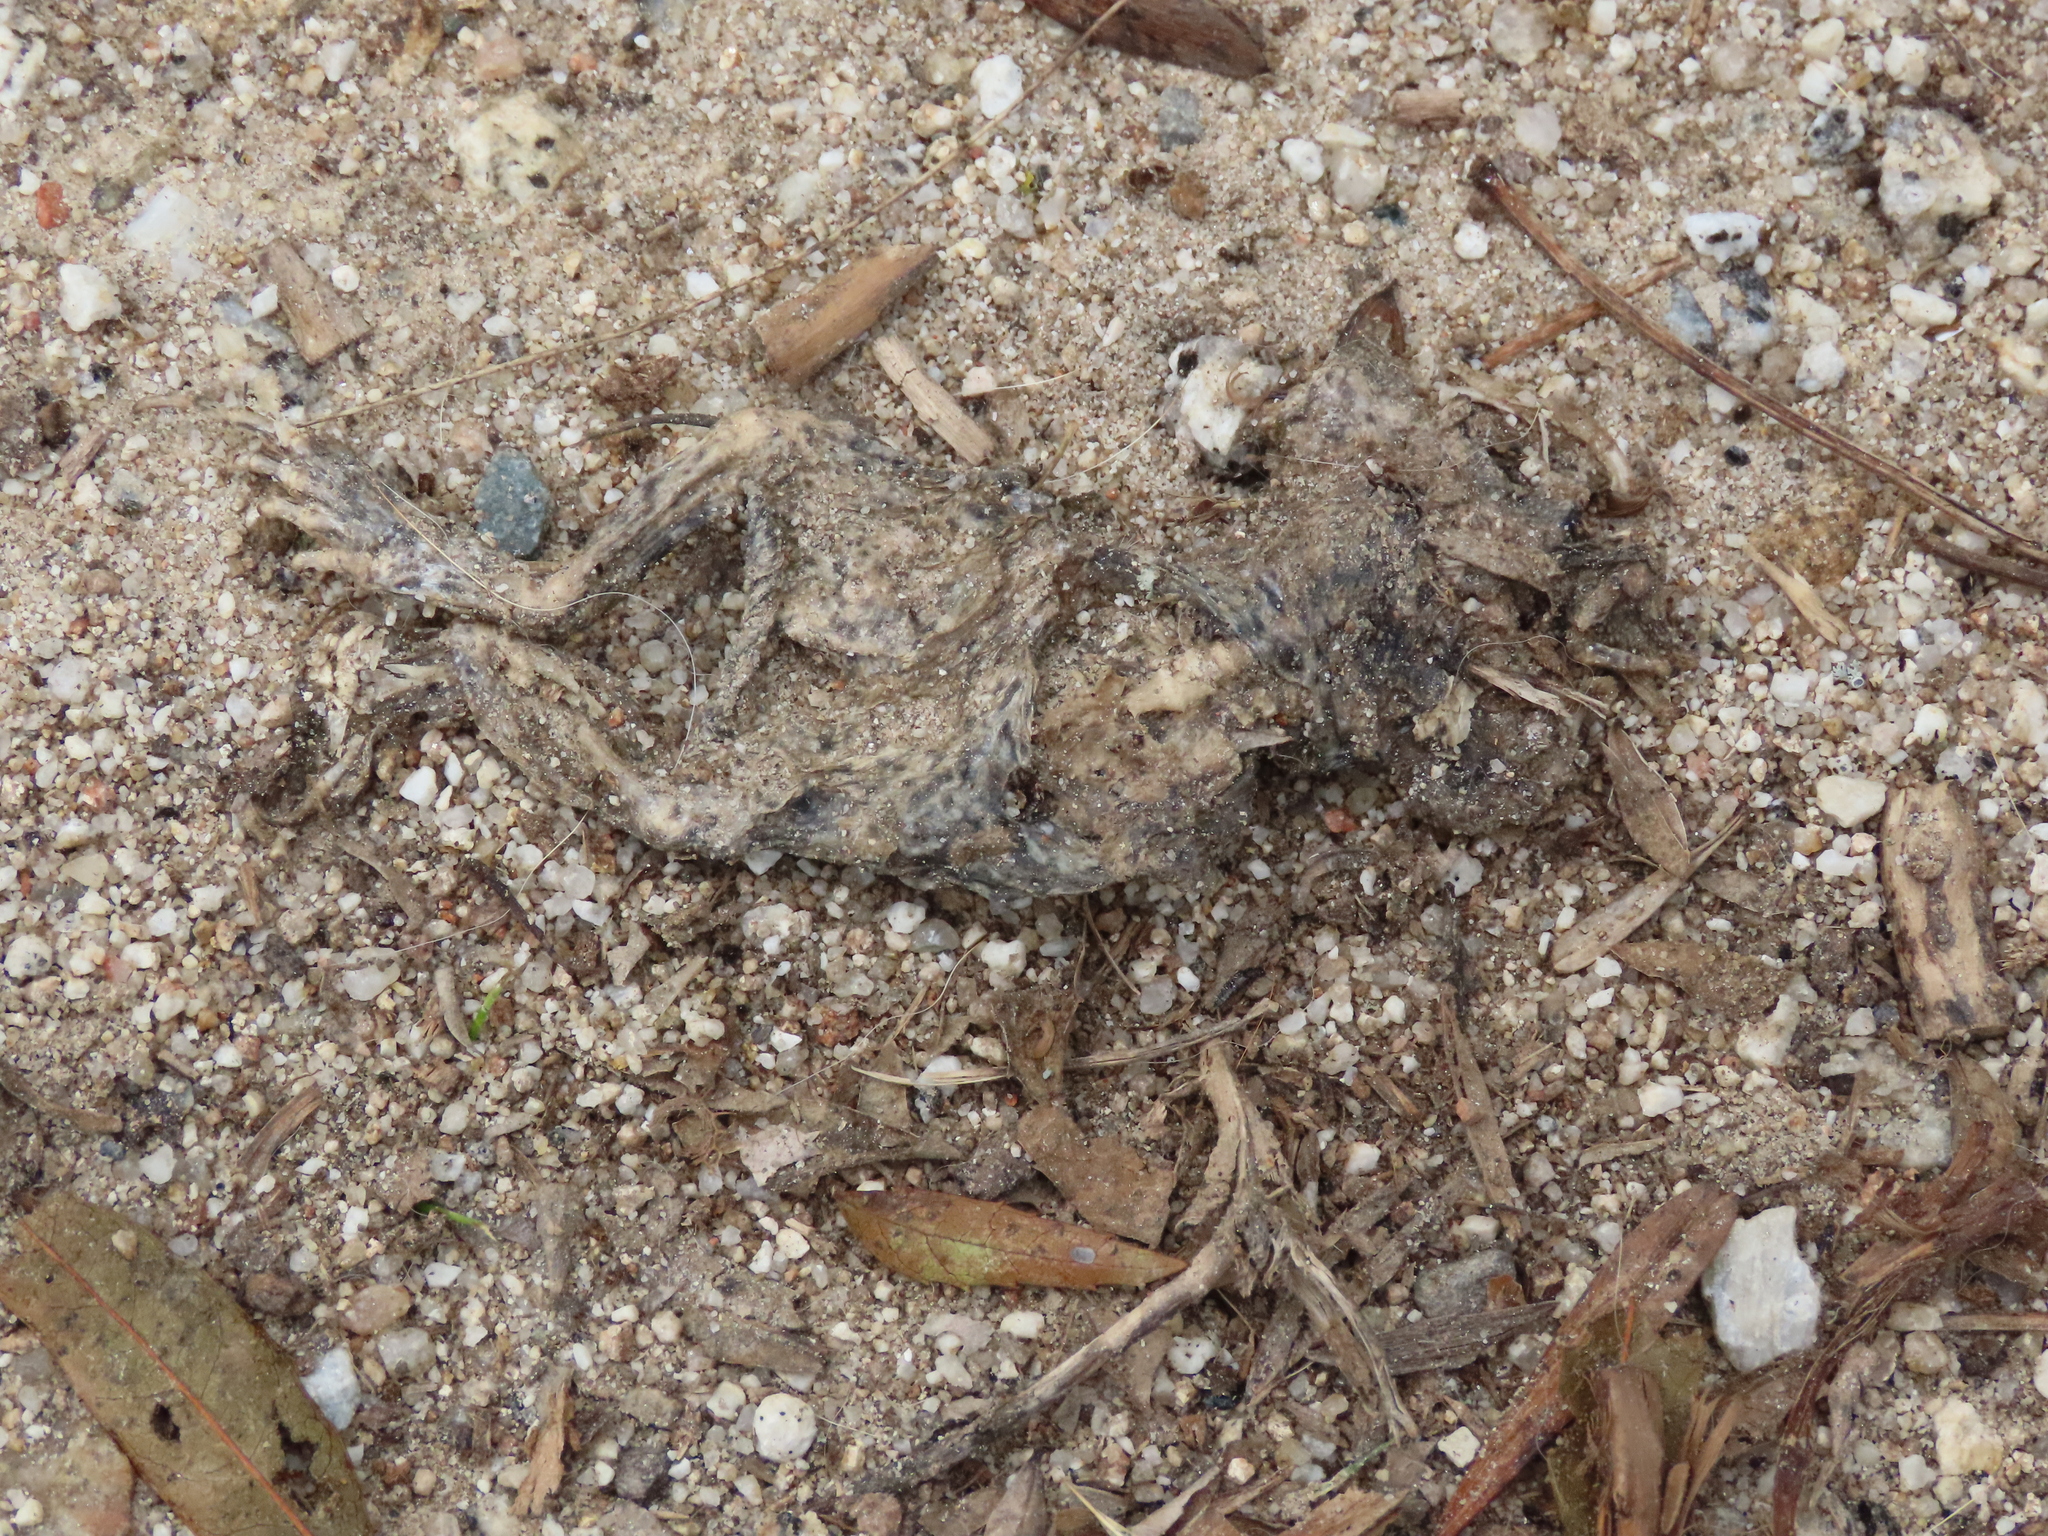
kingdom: Animalia
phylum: Chordata
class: Amphibia
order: Anura
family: Bufonidae
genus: Epidalea
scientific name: Epidalea calamita
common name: Natterjack toad
